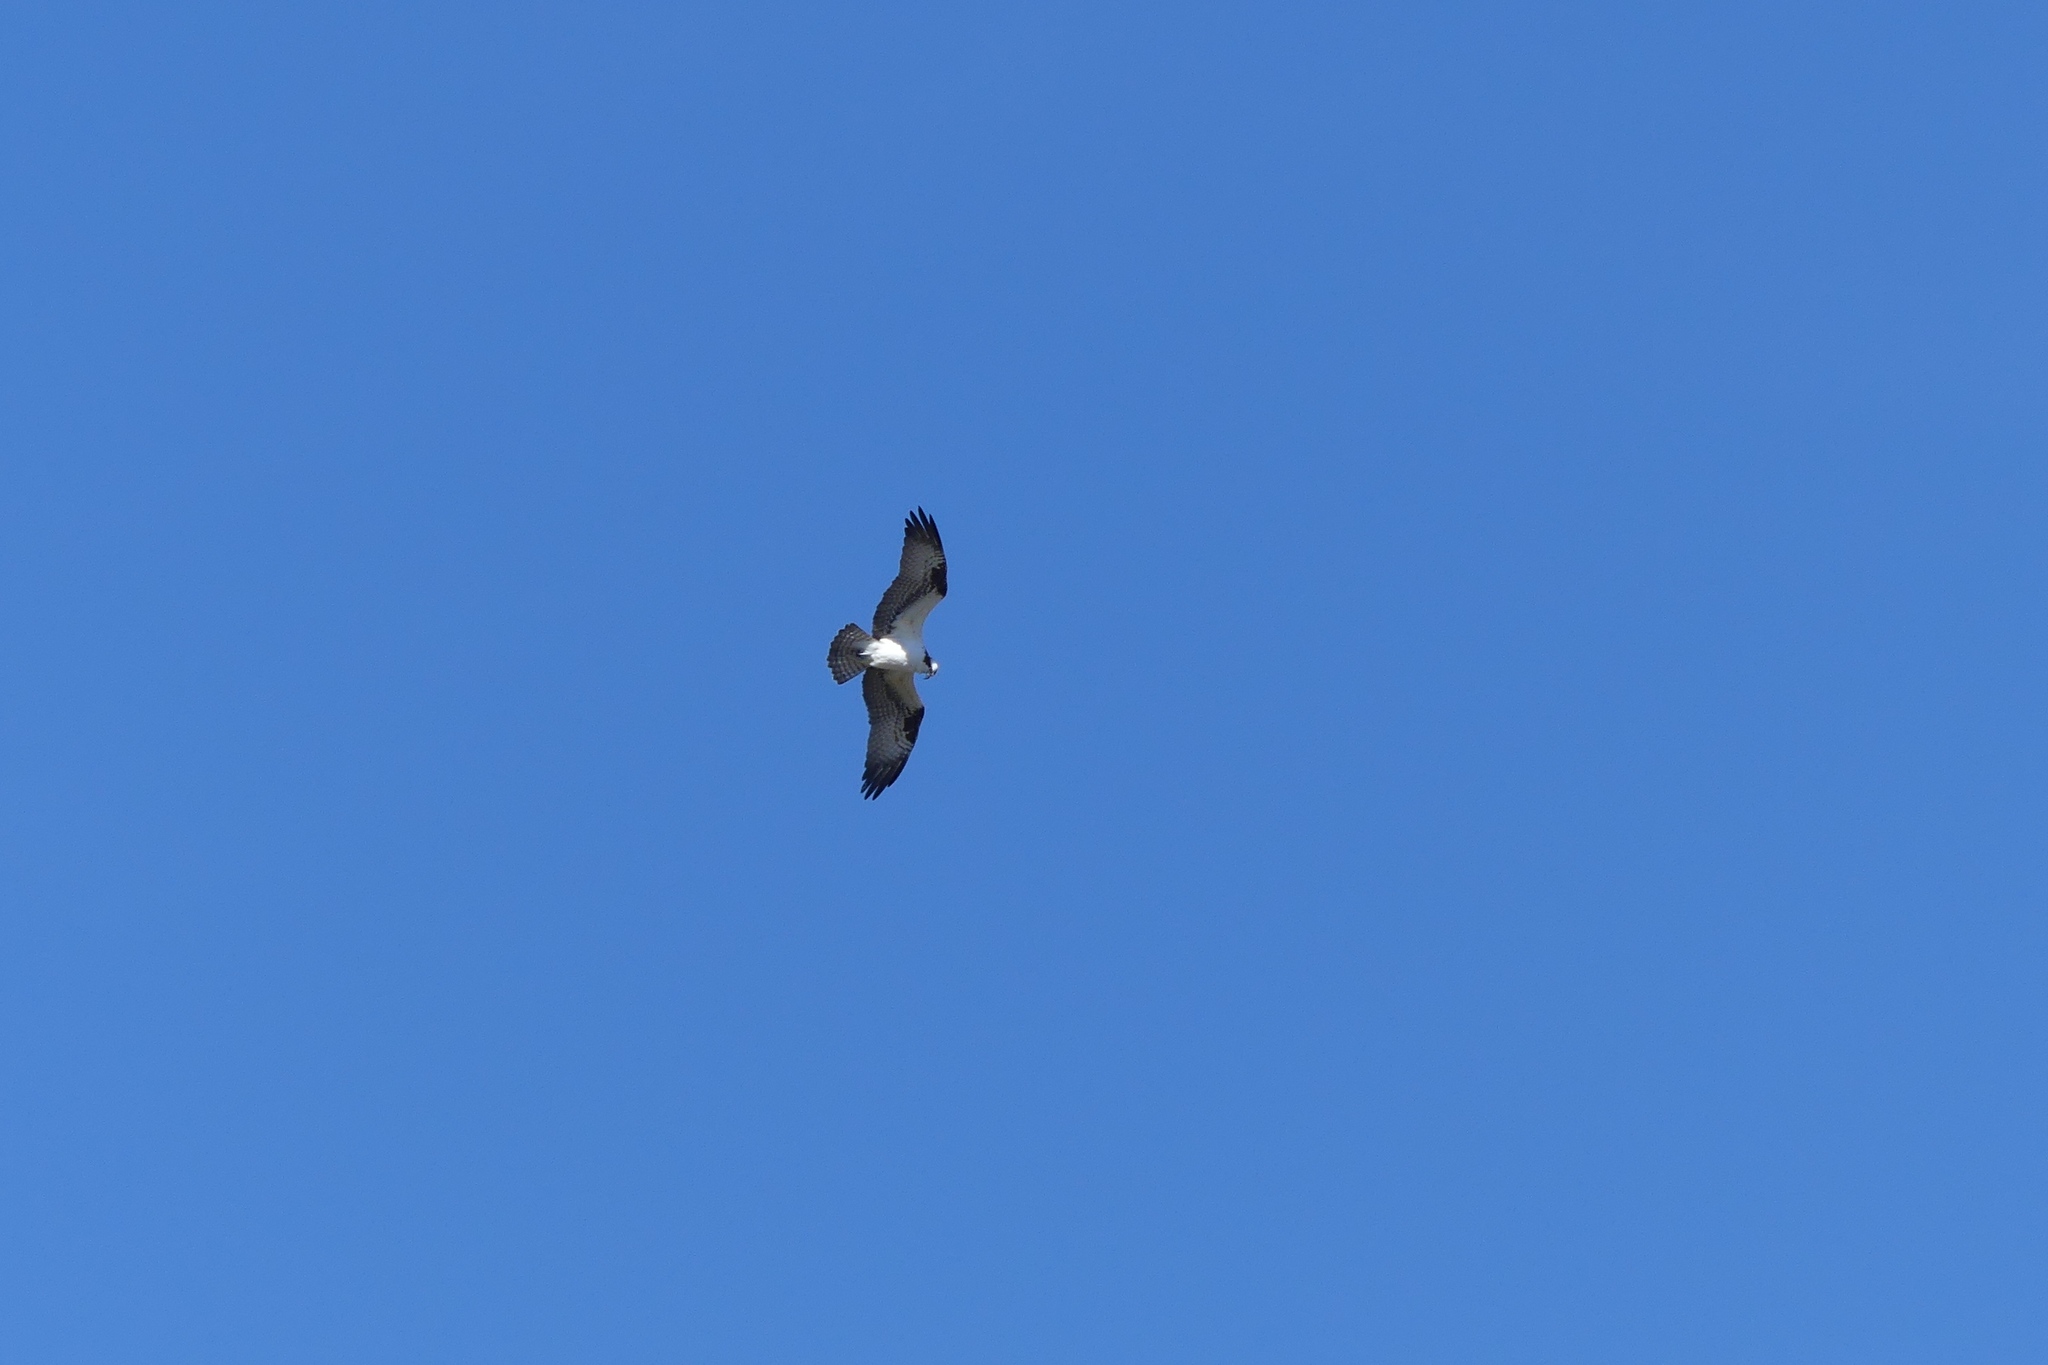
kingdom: Animalia
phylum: Chordata
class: Aves
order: Accipitriformes
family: Pandionidae
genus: Pandion
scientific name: Pandion haliaetus
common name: Osprey
